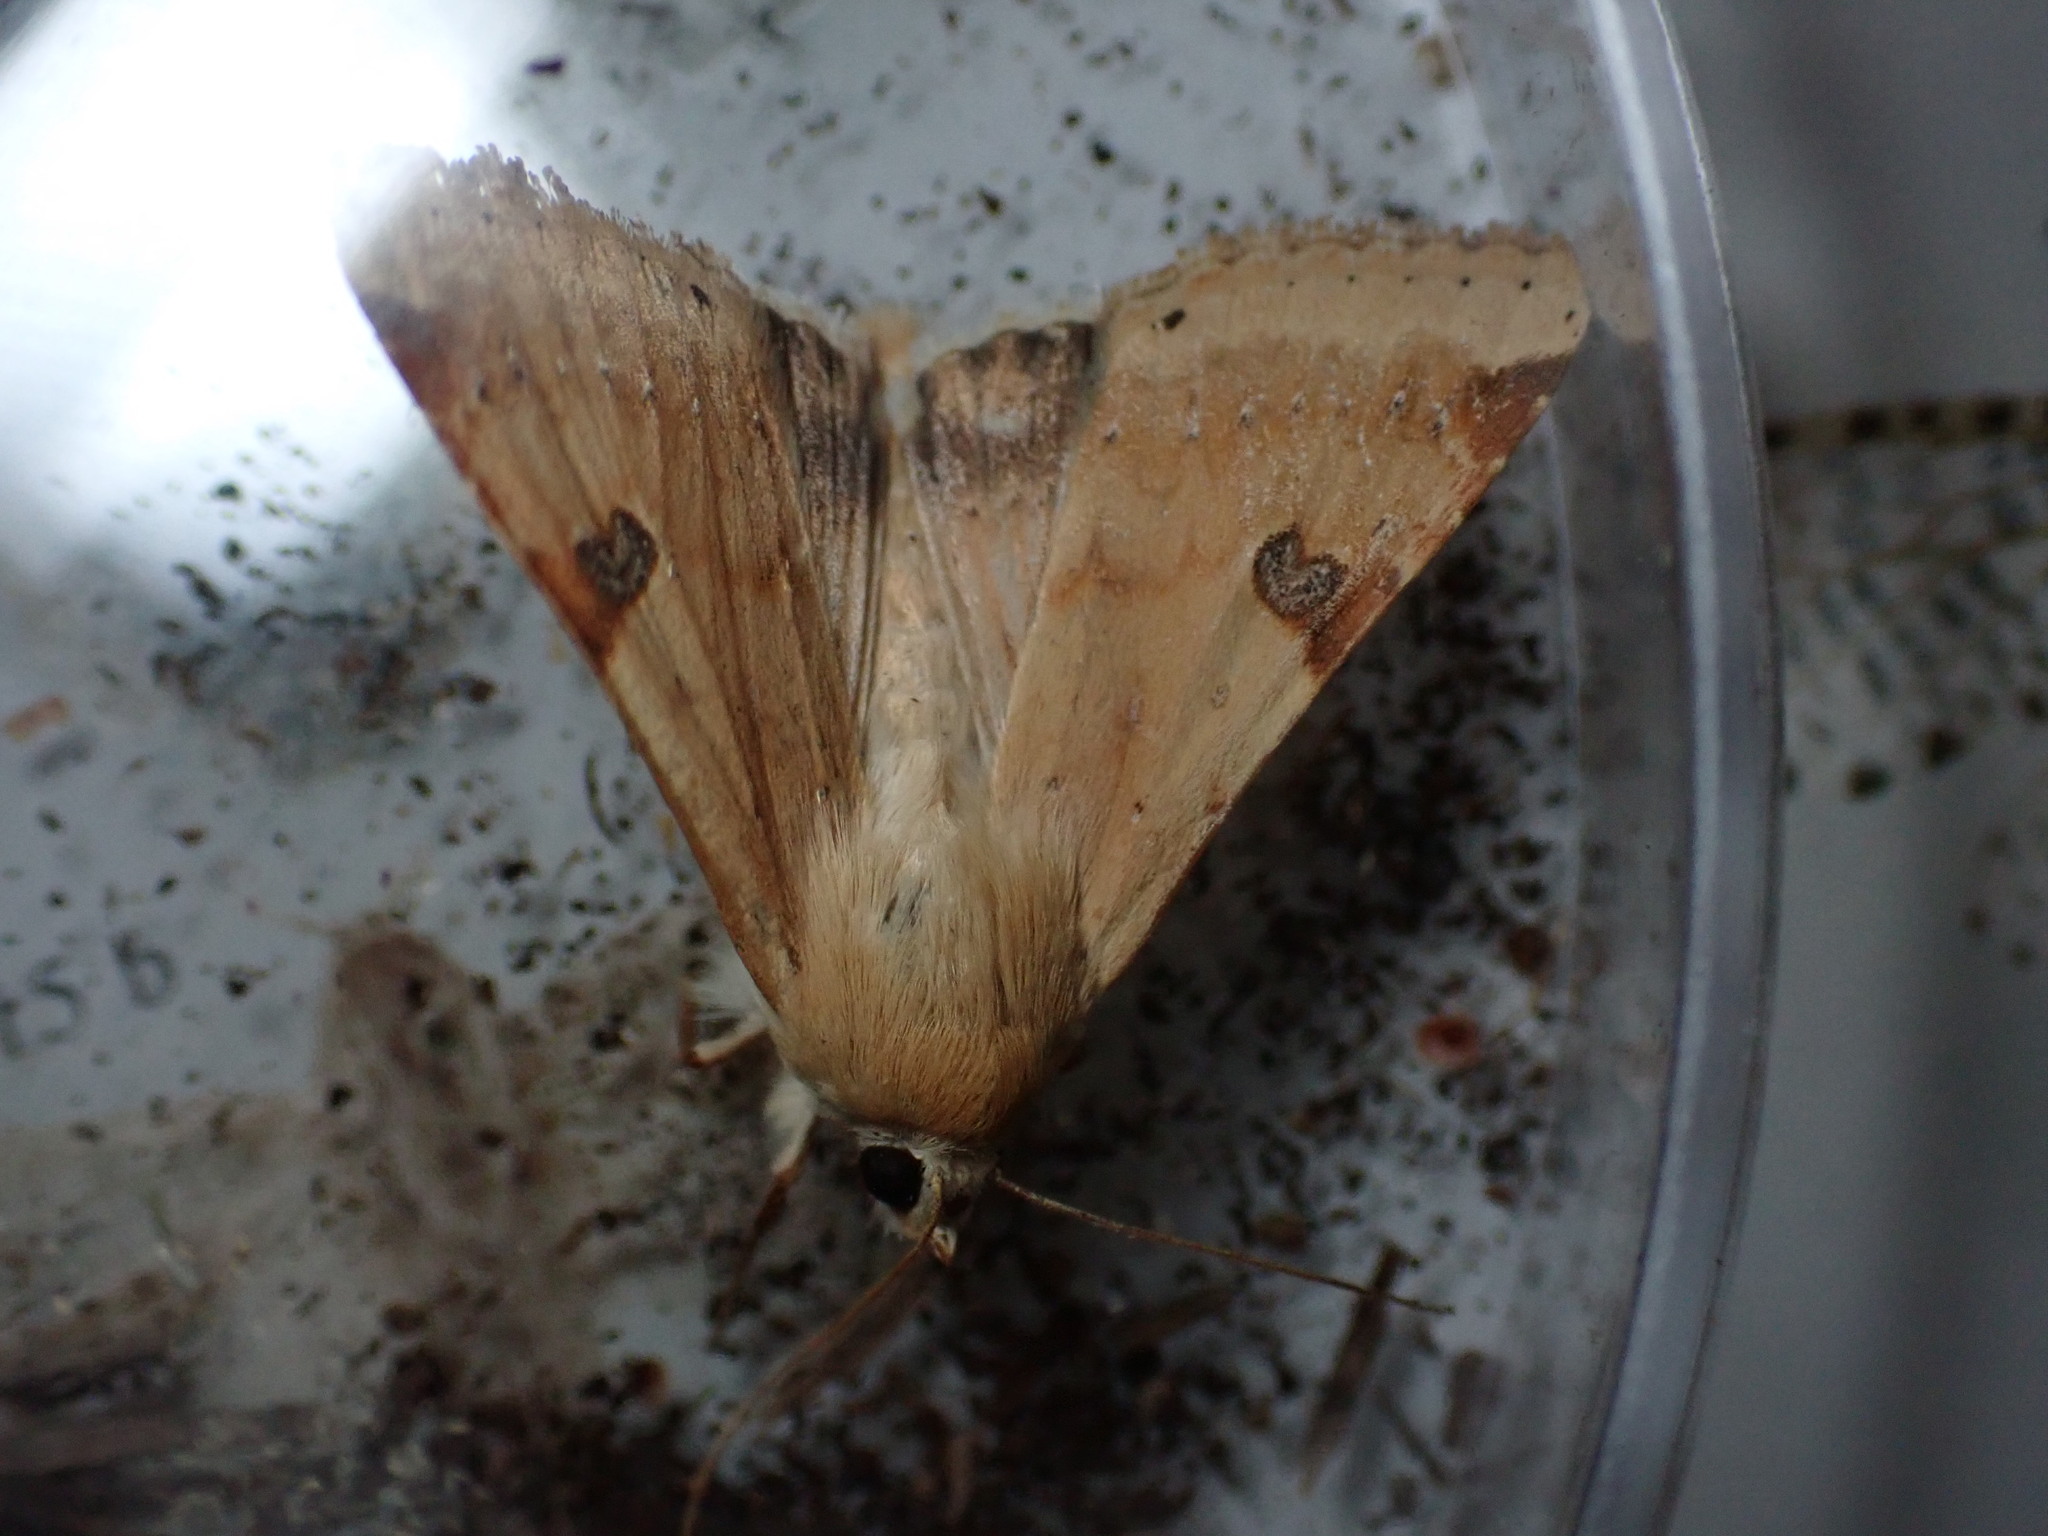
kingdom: Animalia
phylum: Arthropoda
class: Insecta
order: Lepidoptera
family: Noctuidae
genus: Heliothis
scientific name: Heliothis peltigera
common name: Bordered straw
